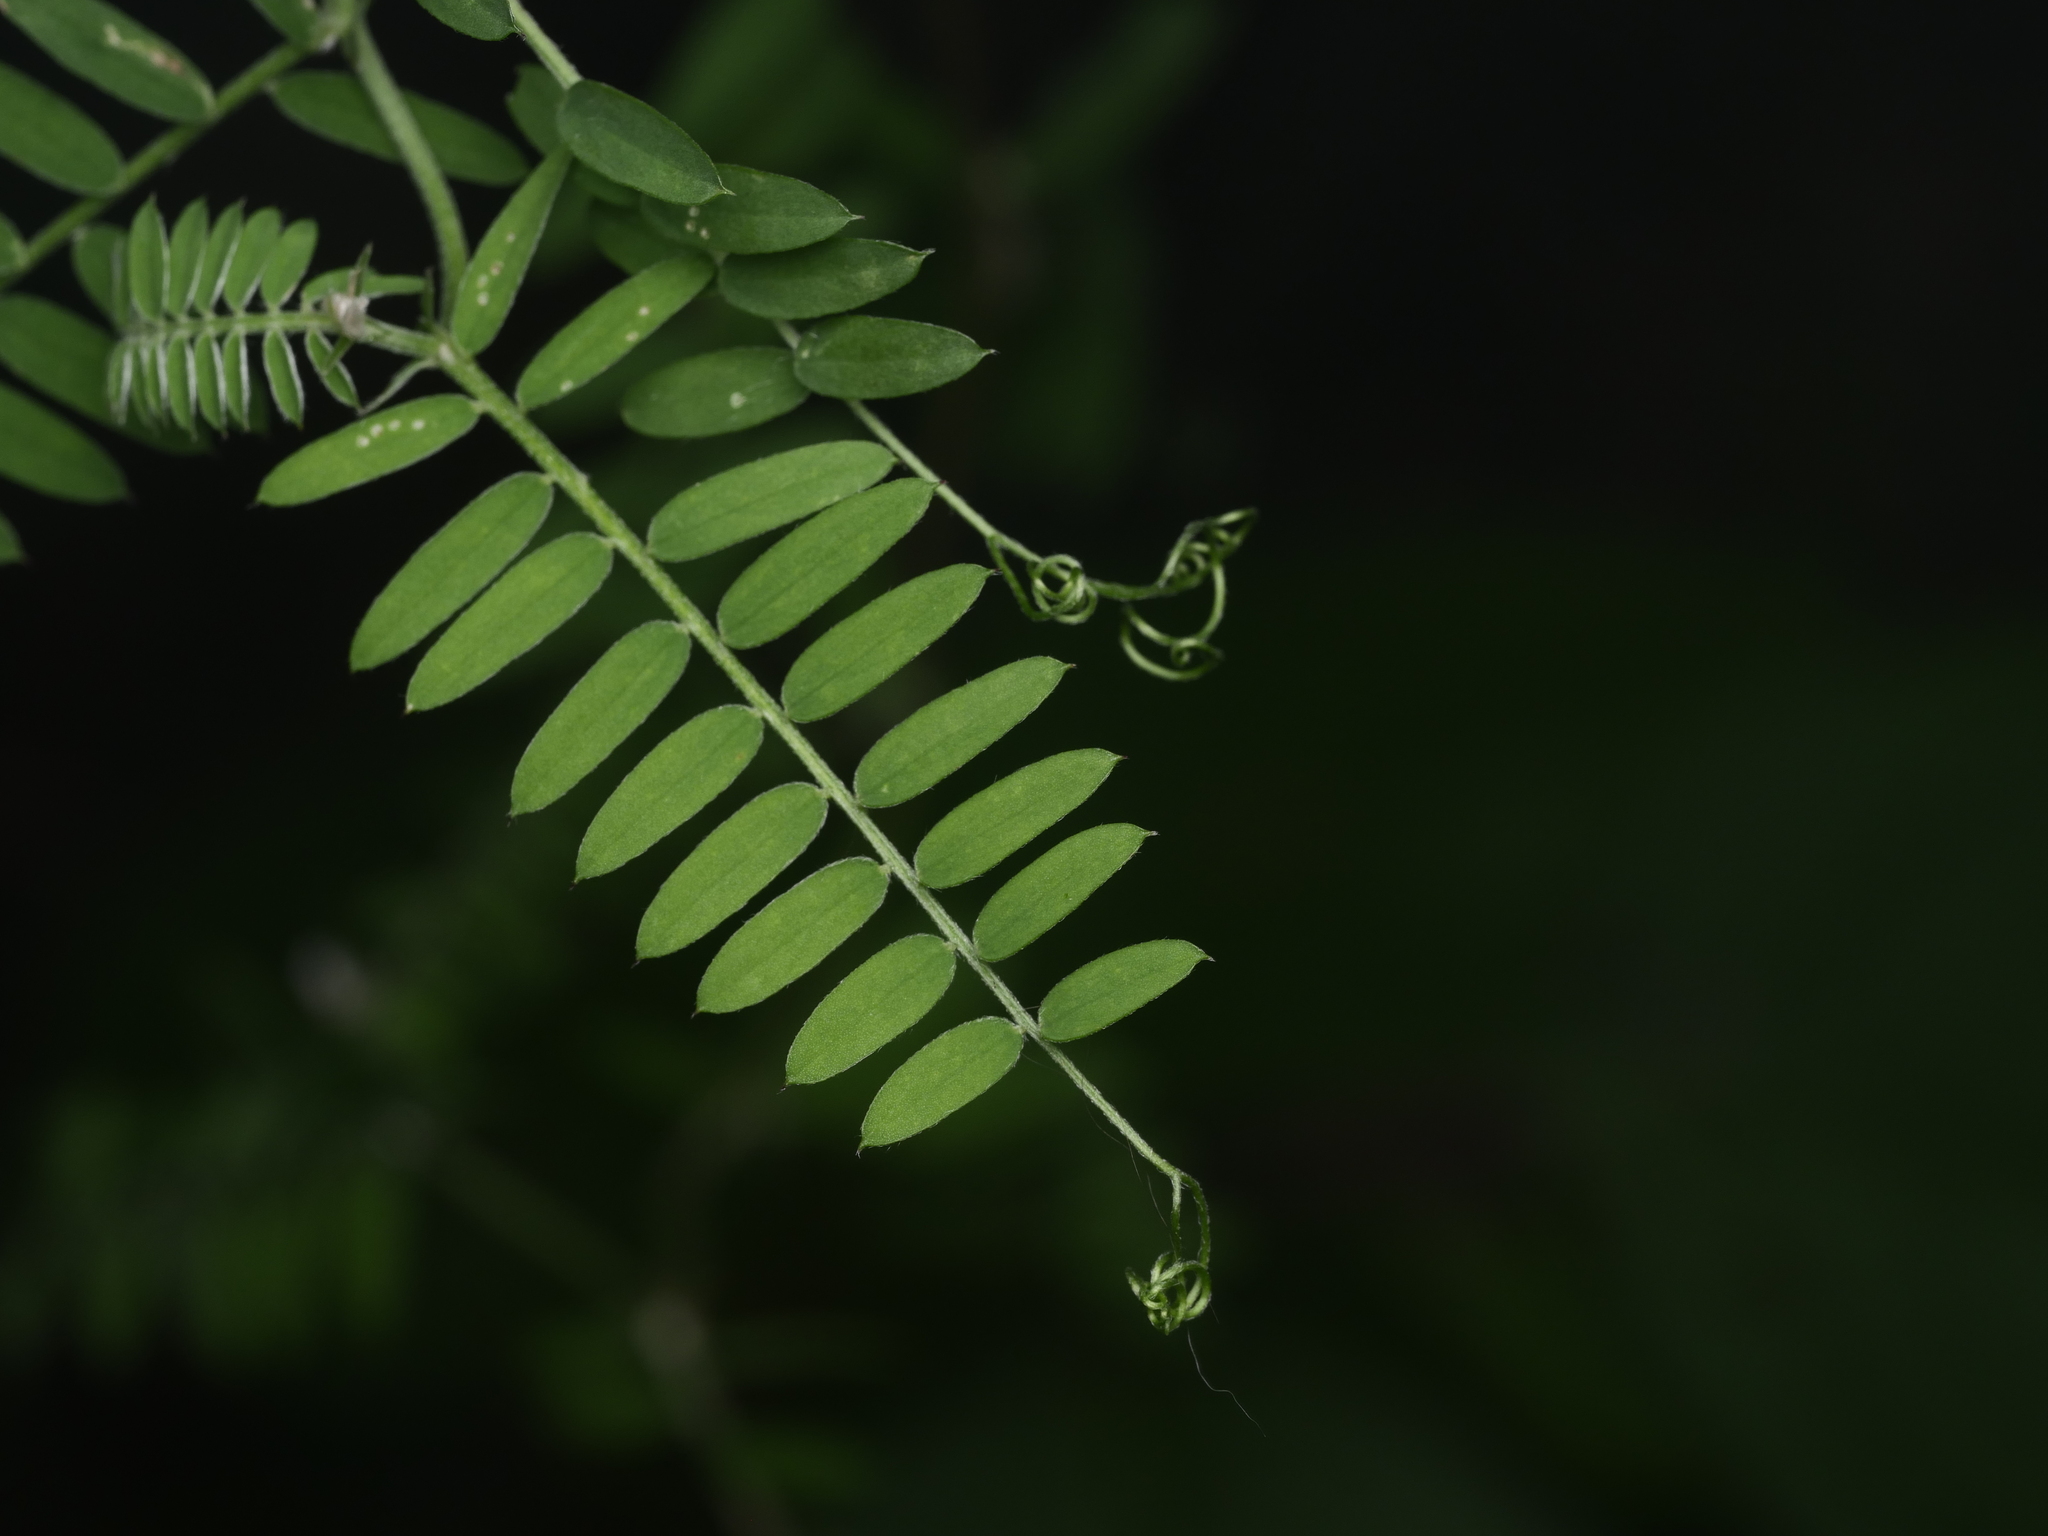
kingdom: Plantae
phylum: Tracheophyta
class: Magnoliopsida
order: Fabales
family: Fabaceae
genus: Vicia
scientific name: Vicia cracca
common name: Bird vetch
